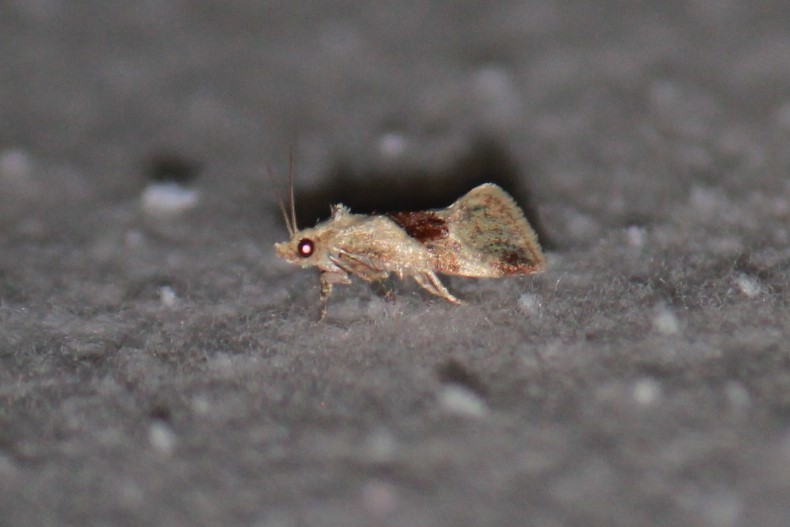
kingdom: Animalia
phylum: Arthropoda
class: Insecta
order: Lepidoptera
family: Tortricidae
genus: Phalonidia
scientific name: Phalonidia lepidana
